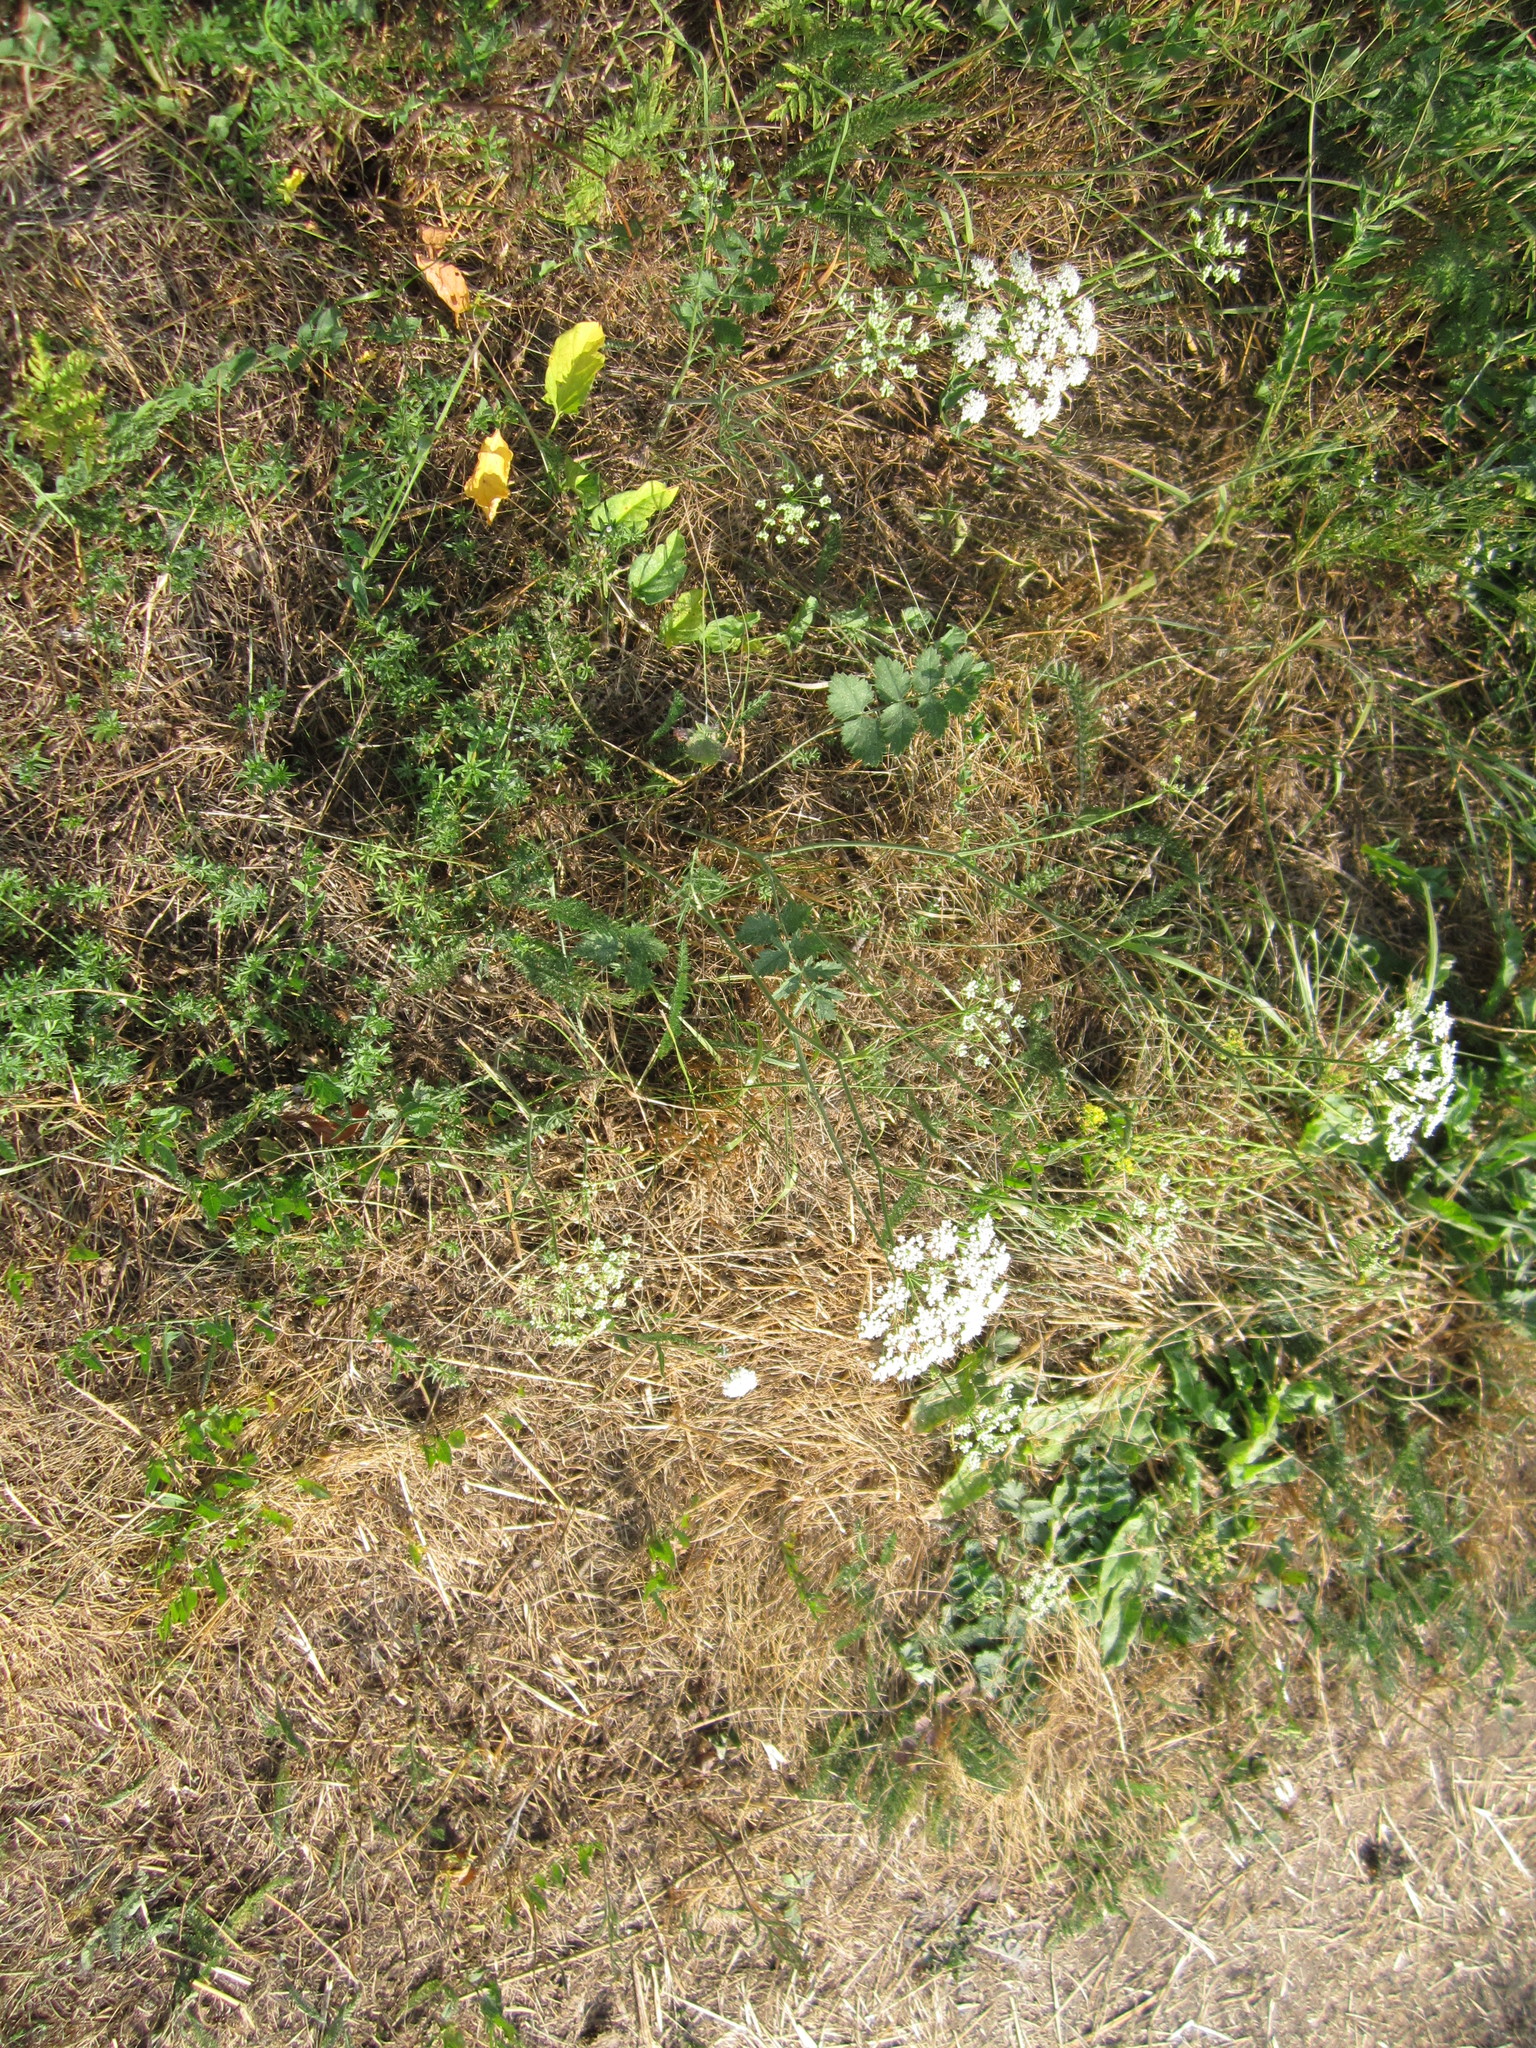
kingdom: Plantae
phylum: Tracheophyta
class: Magnoliopsida
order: Apiales
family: Apiaceae
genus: Pimpinella
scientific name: Pimpinella saxifraga
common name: Burnet-saxifrage
